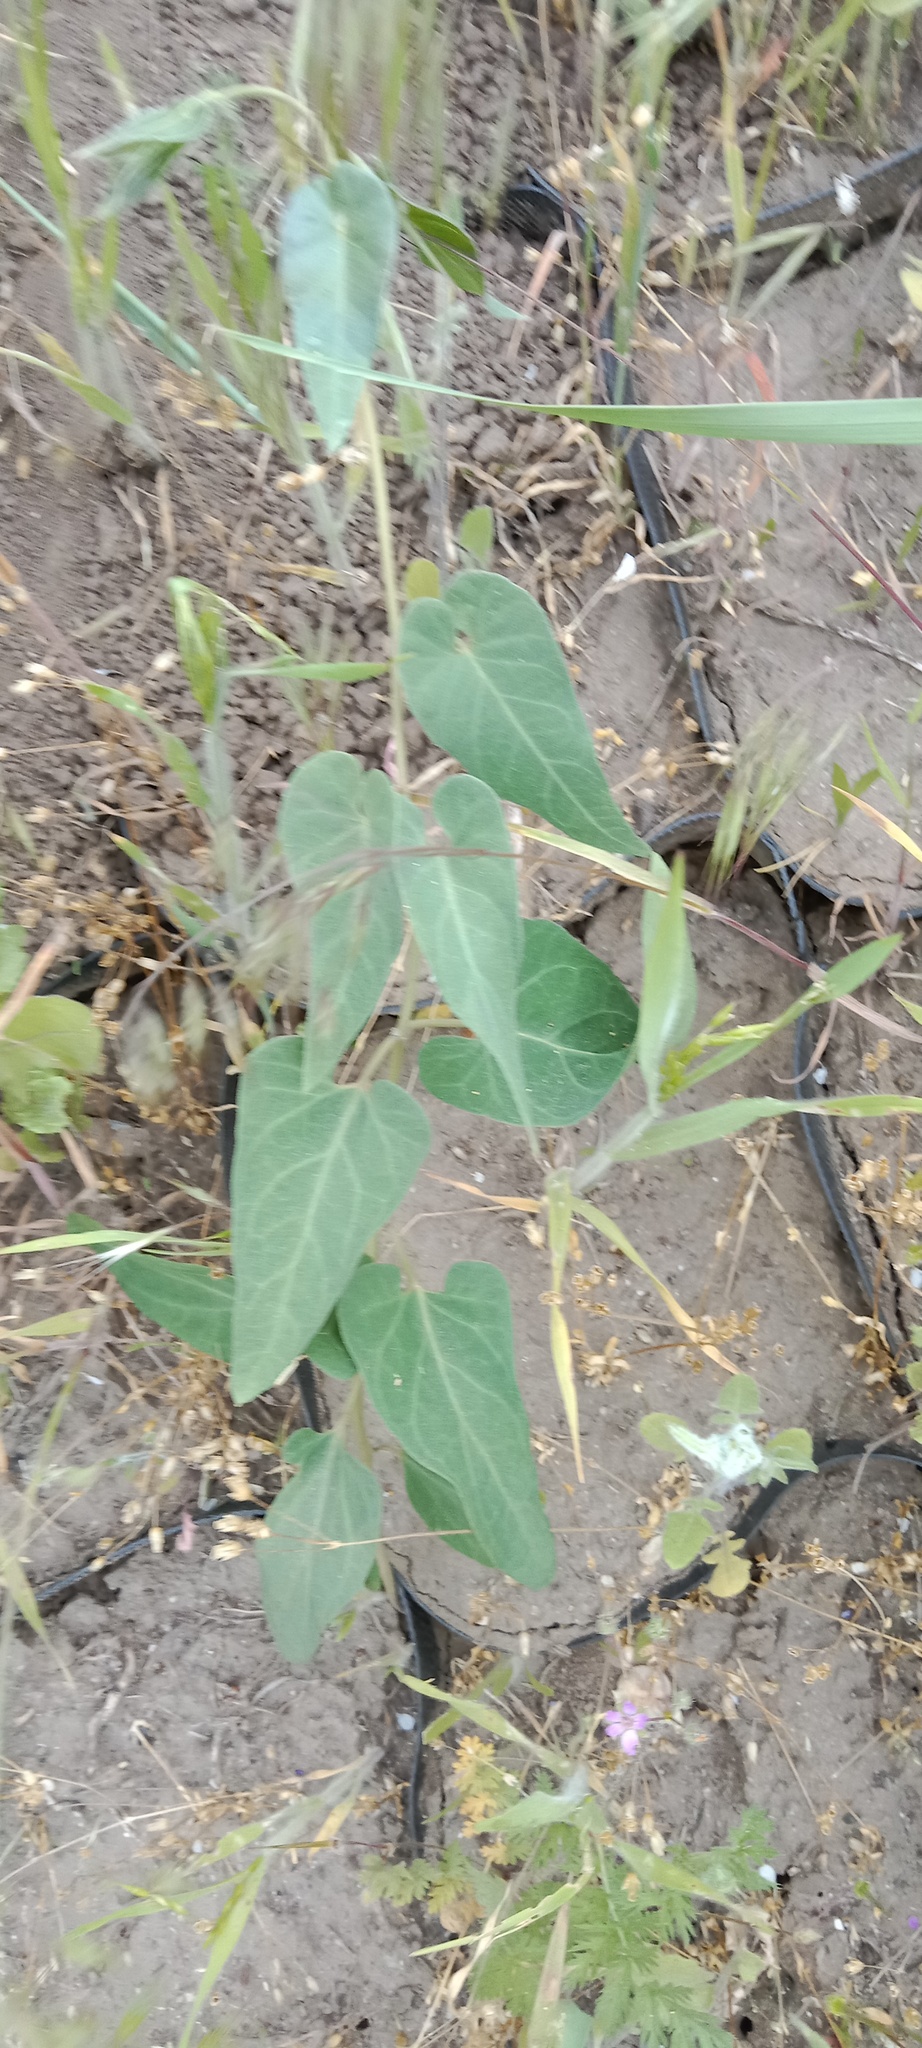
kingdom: Plantae
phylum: Tracheophyta
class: Magnoliopsida
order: Gentianales
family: Apocynaceae
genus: Cynanchum
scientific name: Cynanchum acutum
